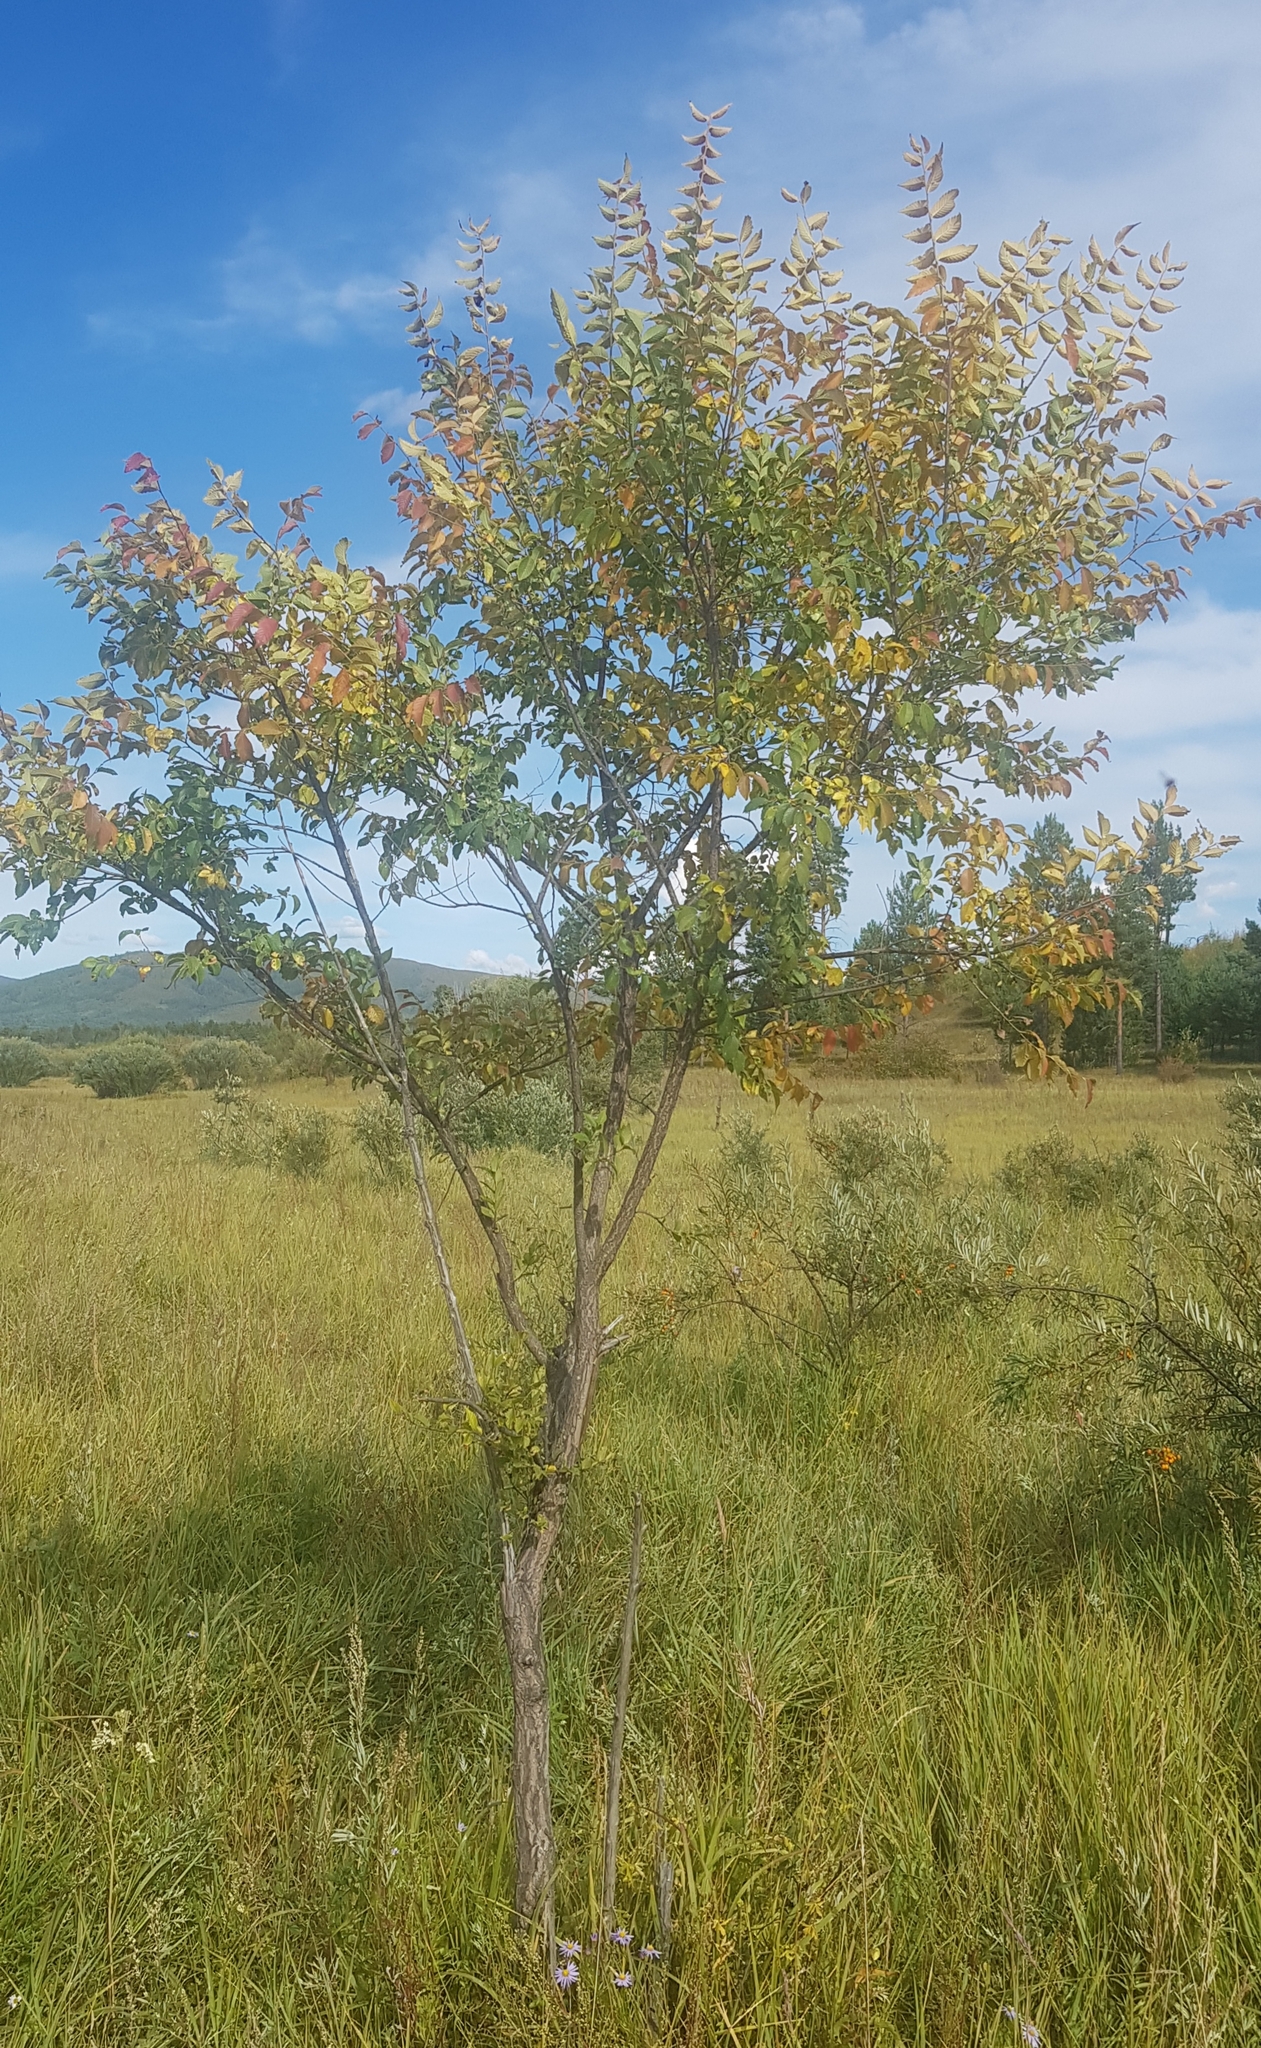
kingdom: Plantae
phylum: Tracheophyta
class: Magnoliopsida
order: Rosales
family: Ulmaceae
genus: Ulmus
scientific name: Ulmus pumila
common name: Siberian elm
